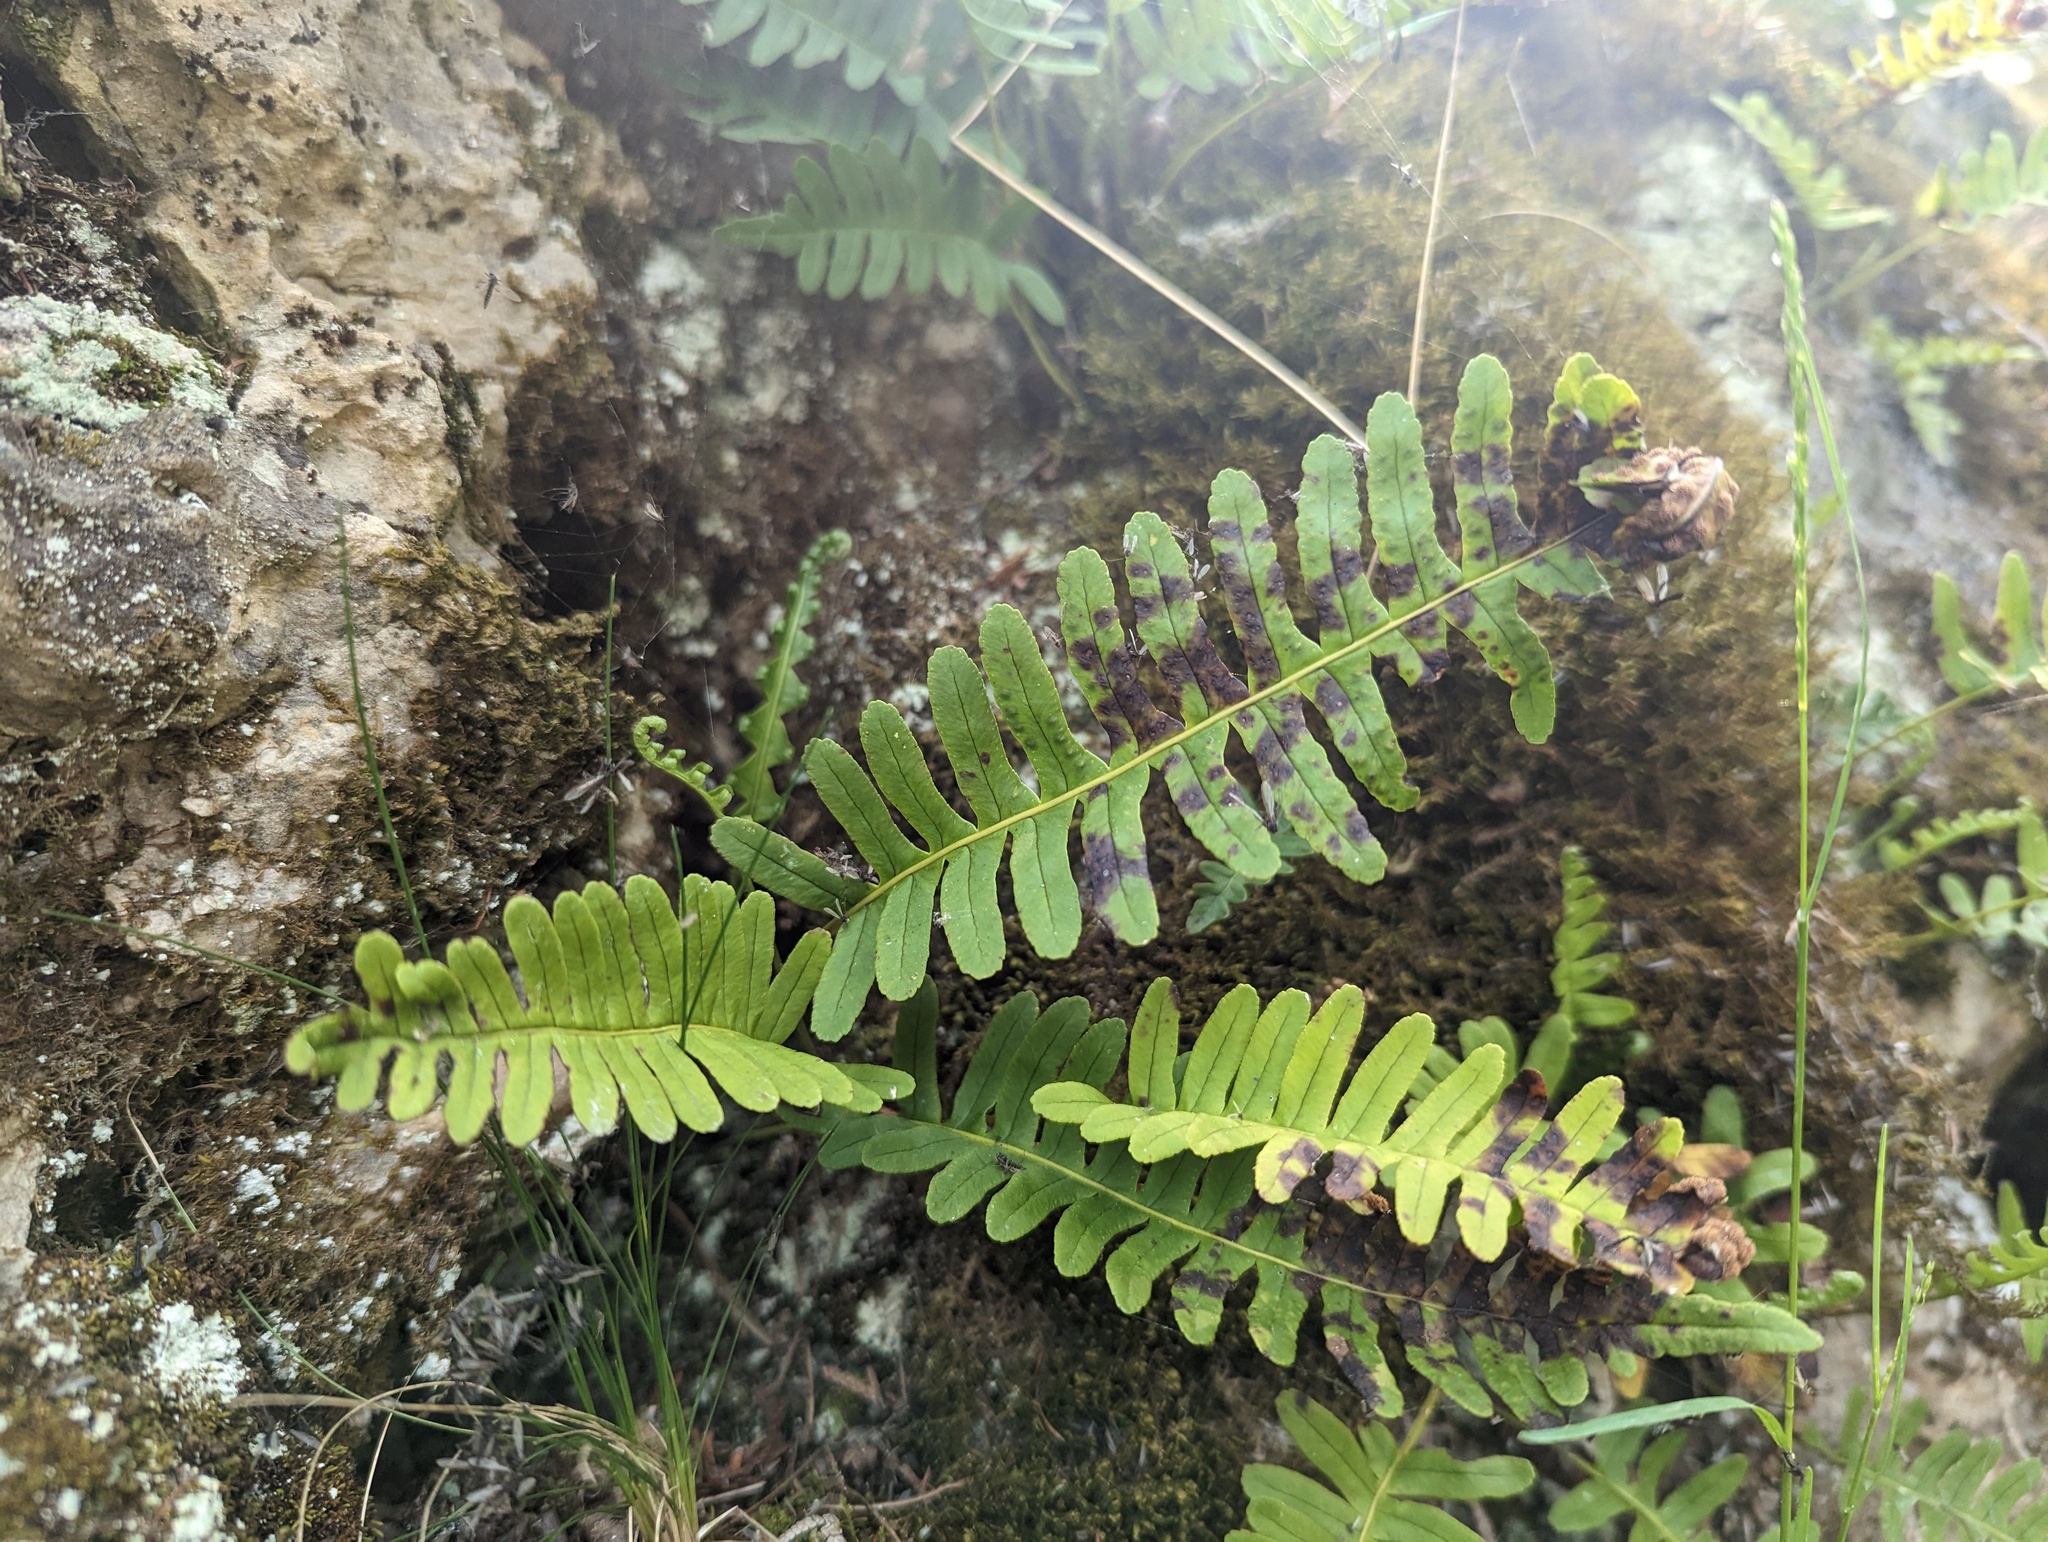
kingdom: Plantae
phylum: Tracheophyta
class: Polypodiopsida
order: Polypodiales
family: Polypodiaceae
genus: Polypodium
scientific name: Polypodium virginianum
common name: American wall fern
